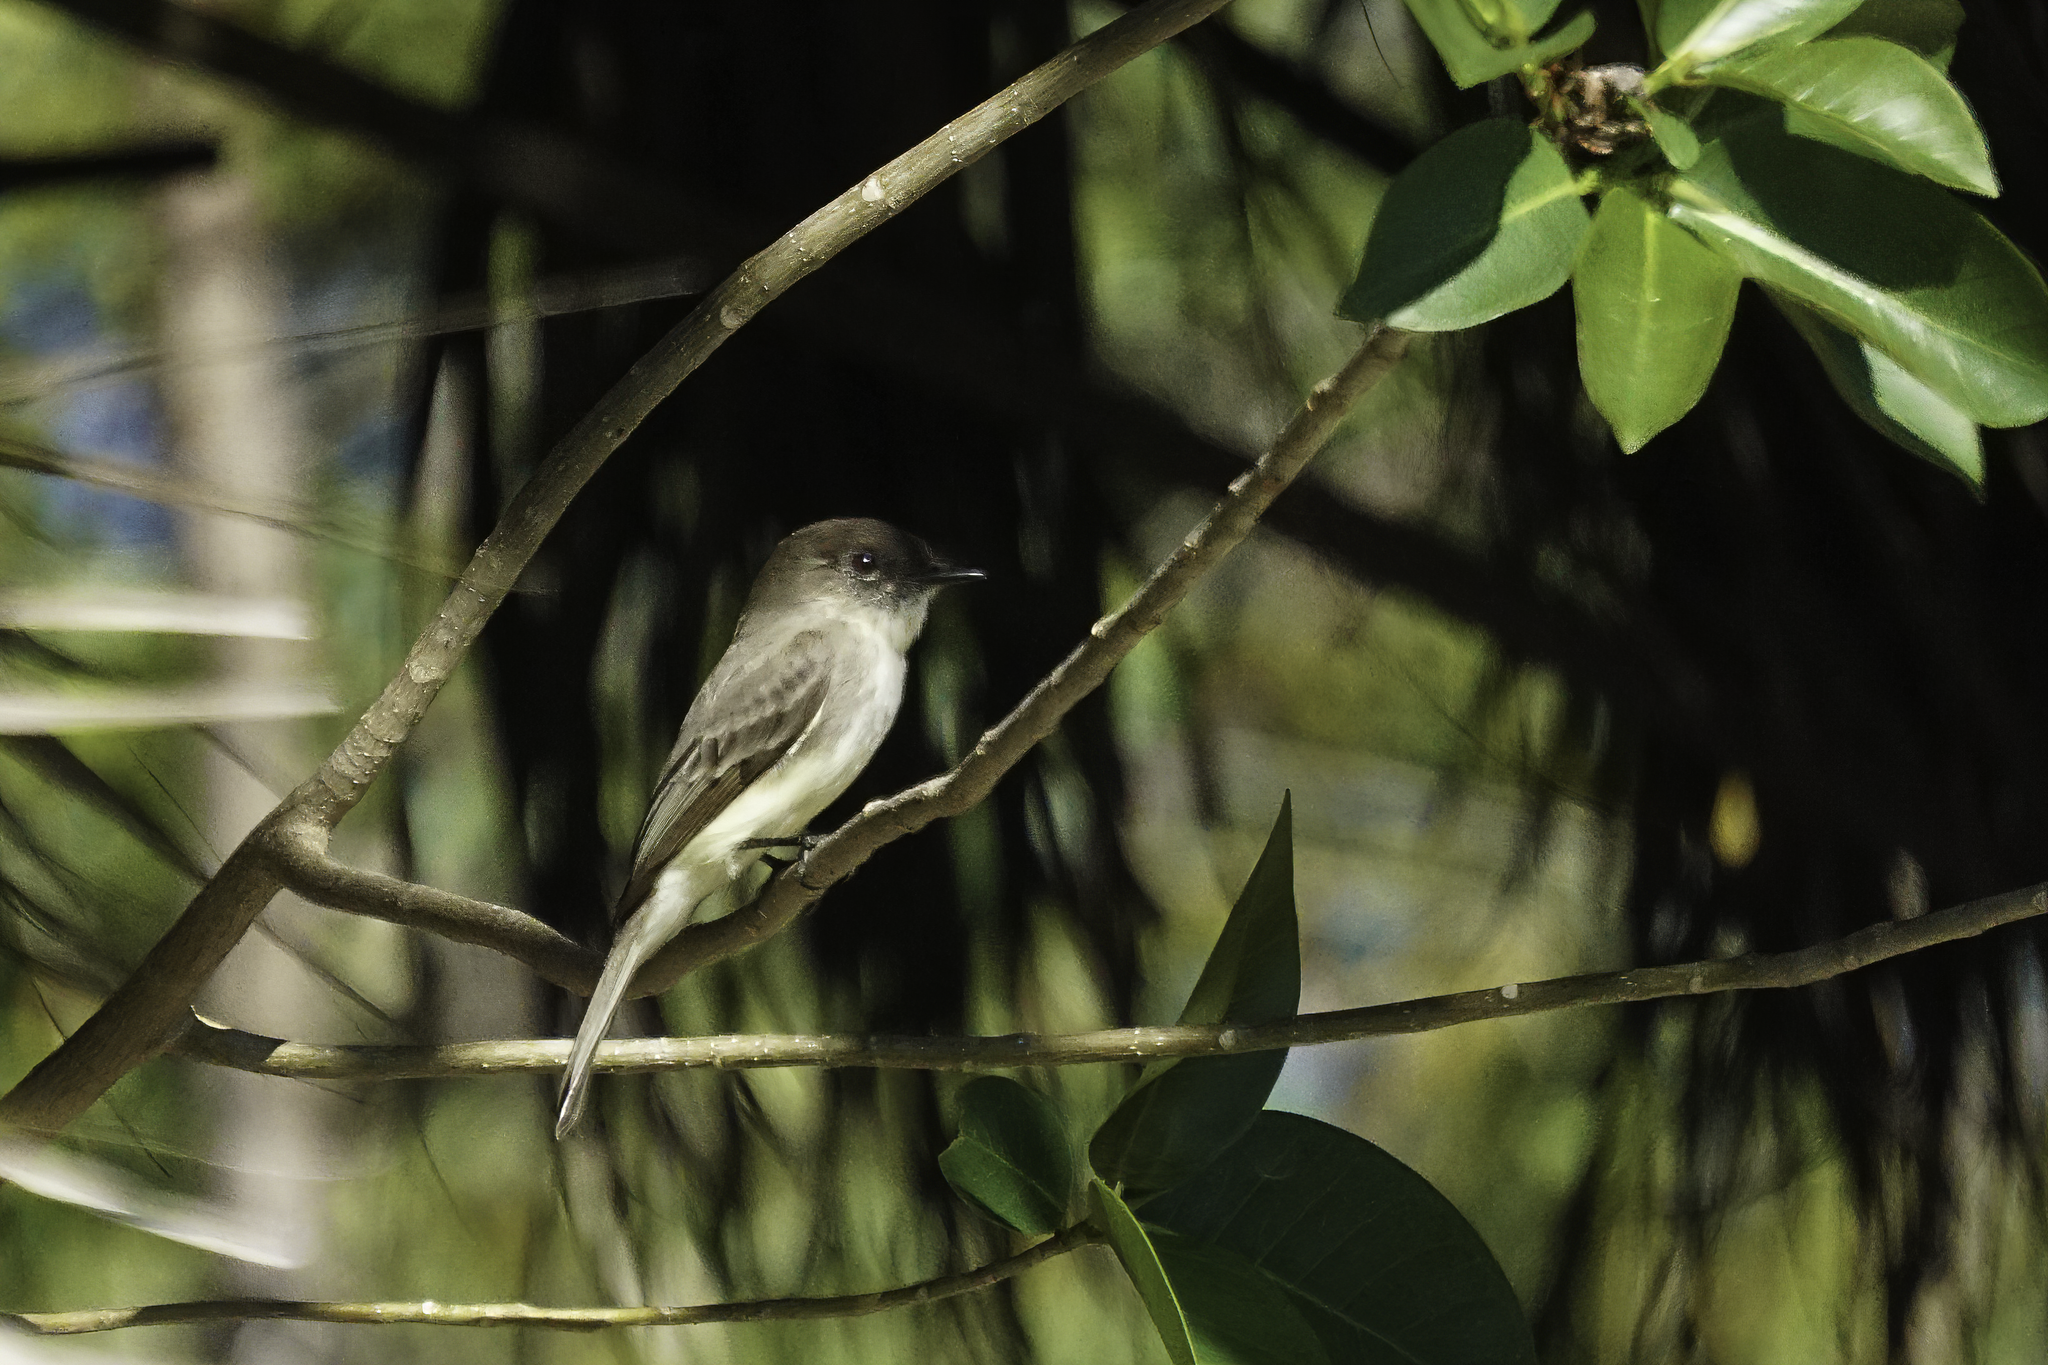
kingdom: Animalia
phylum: Chordata
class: Aves
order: Passeriformes
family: Tyrannidae
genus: Sayornis
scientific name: Sayornis phoebe
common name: Eastern phoebe
